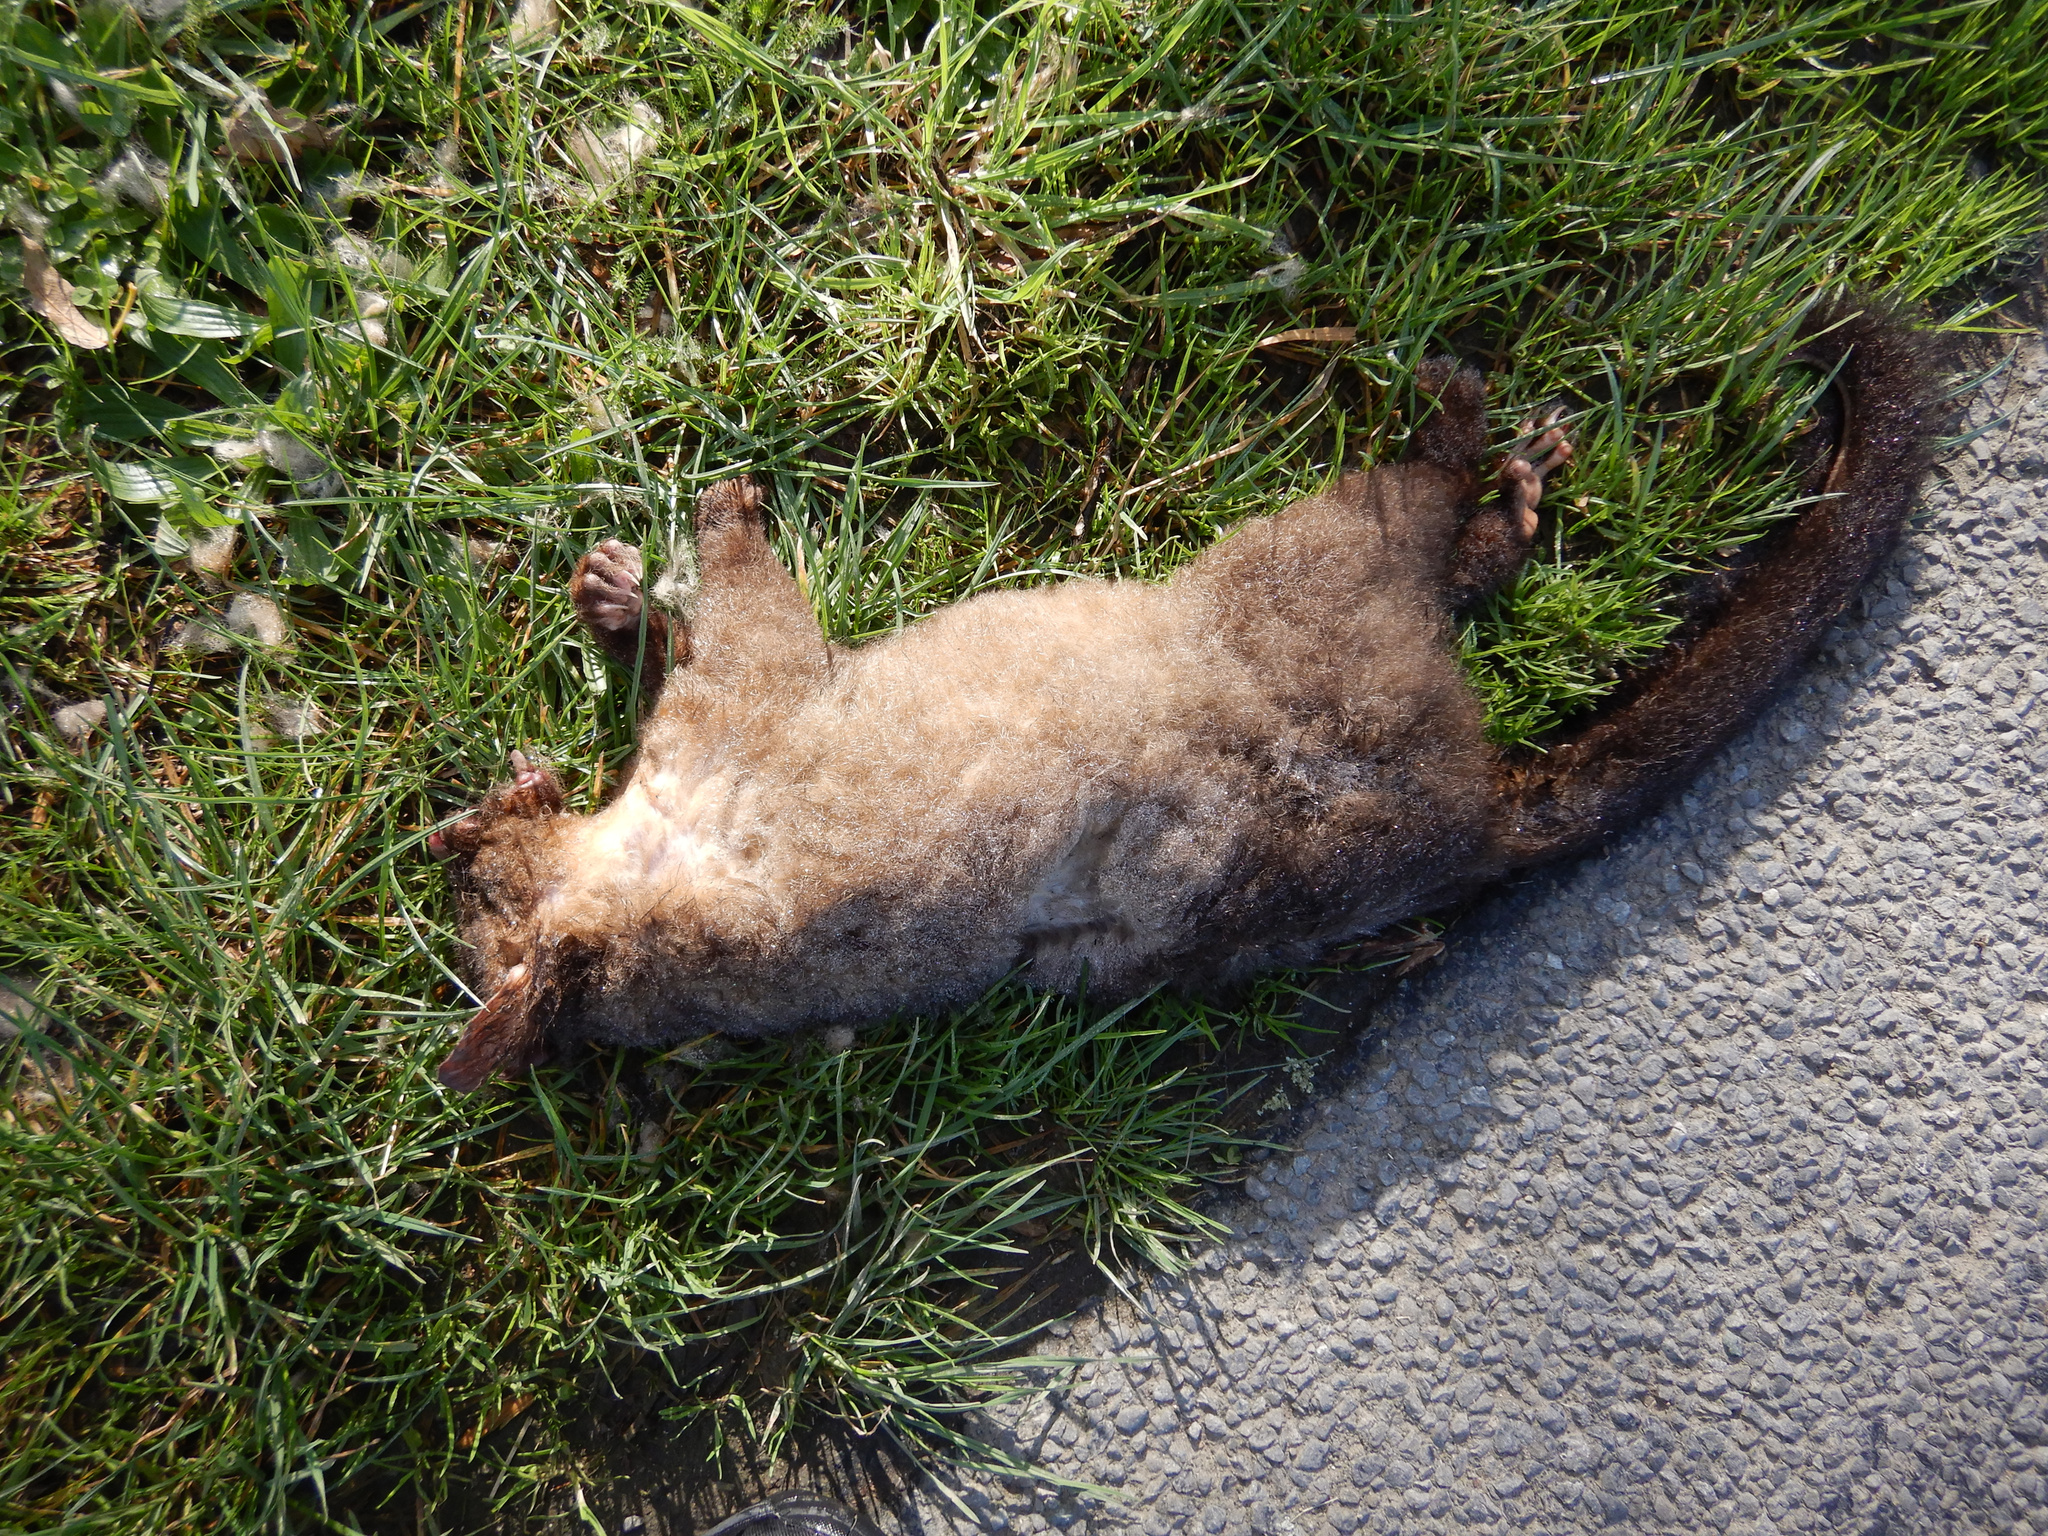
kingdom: Animalia
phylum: Chordata
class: Mammalia
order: Diprotodontia
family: Phalangeridae
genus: Trichosurus
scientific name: Trichosurus vulpecula
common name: Common brushtail
